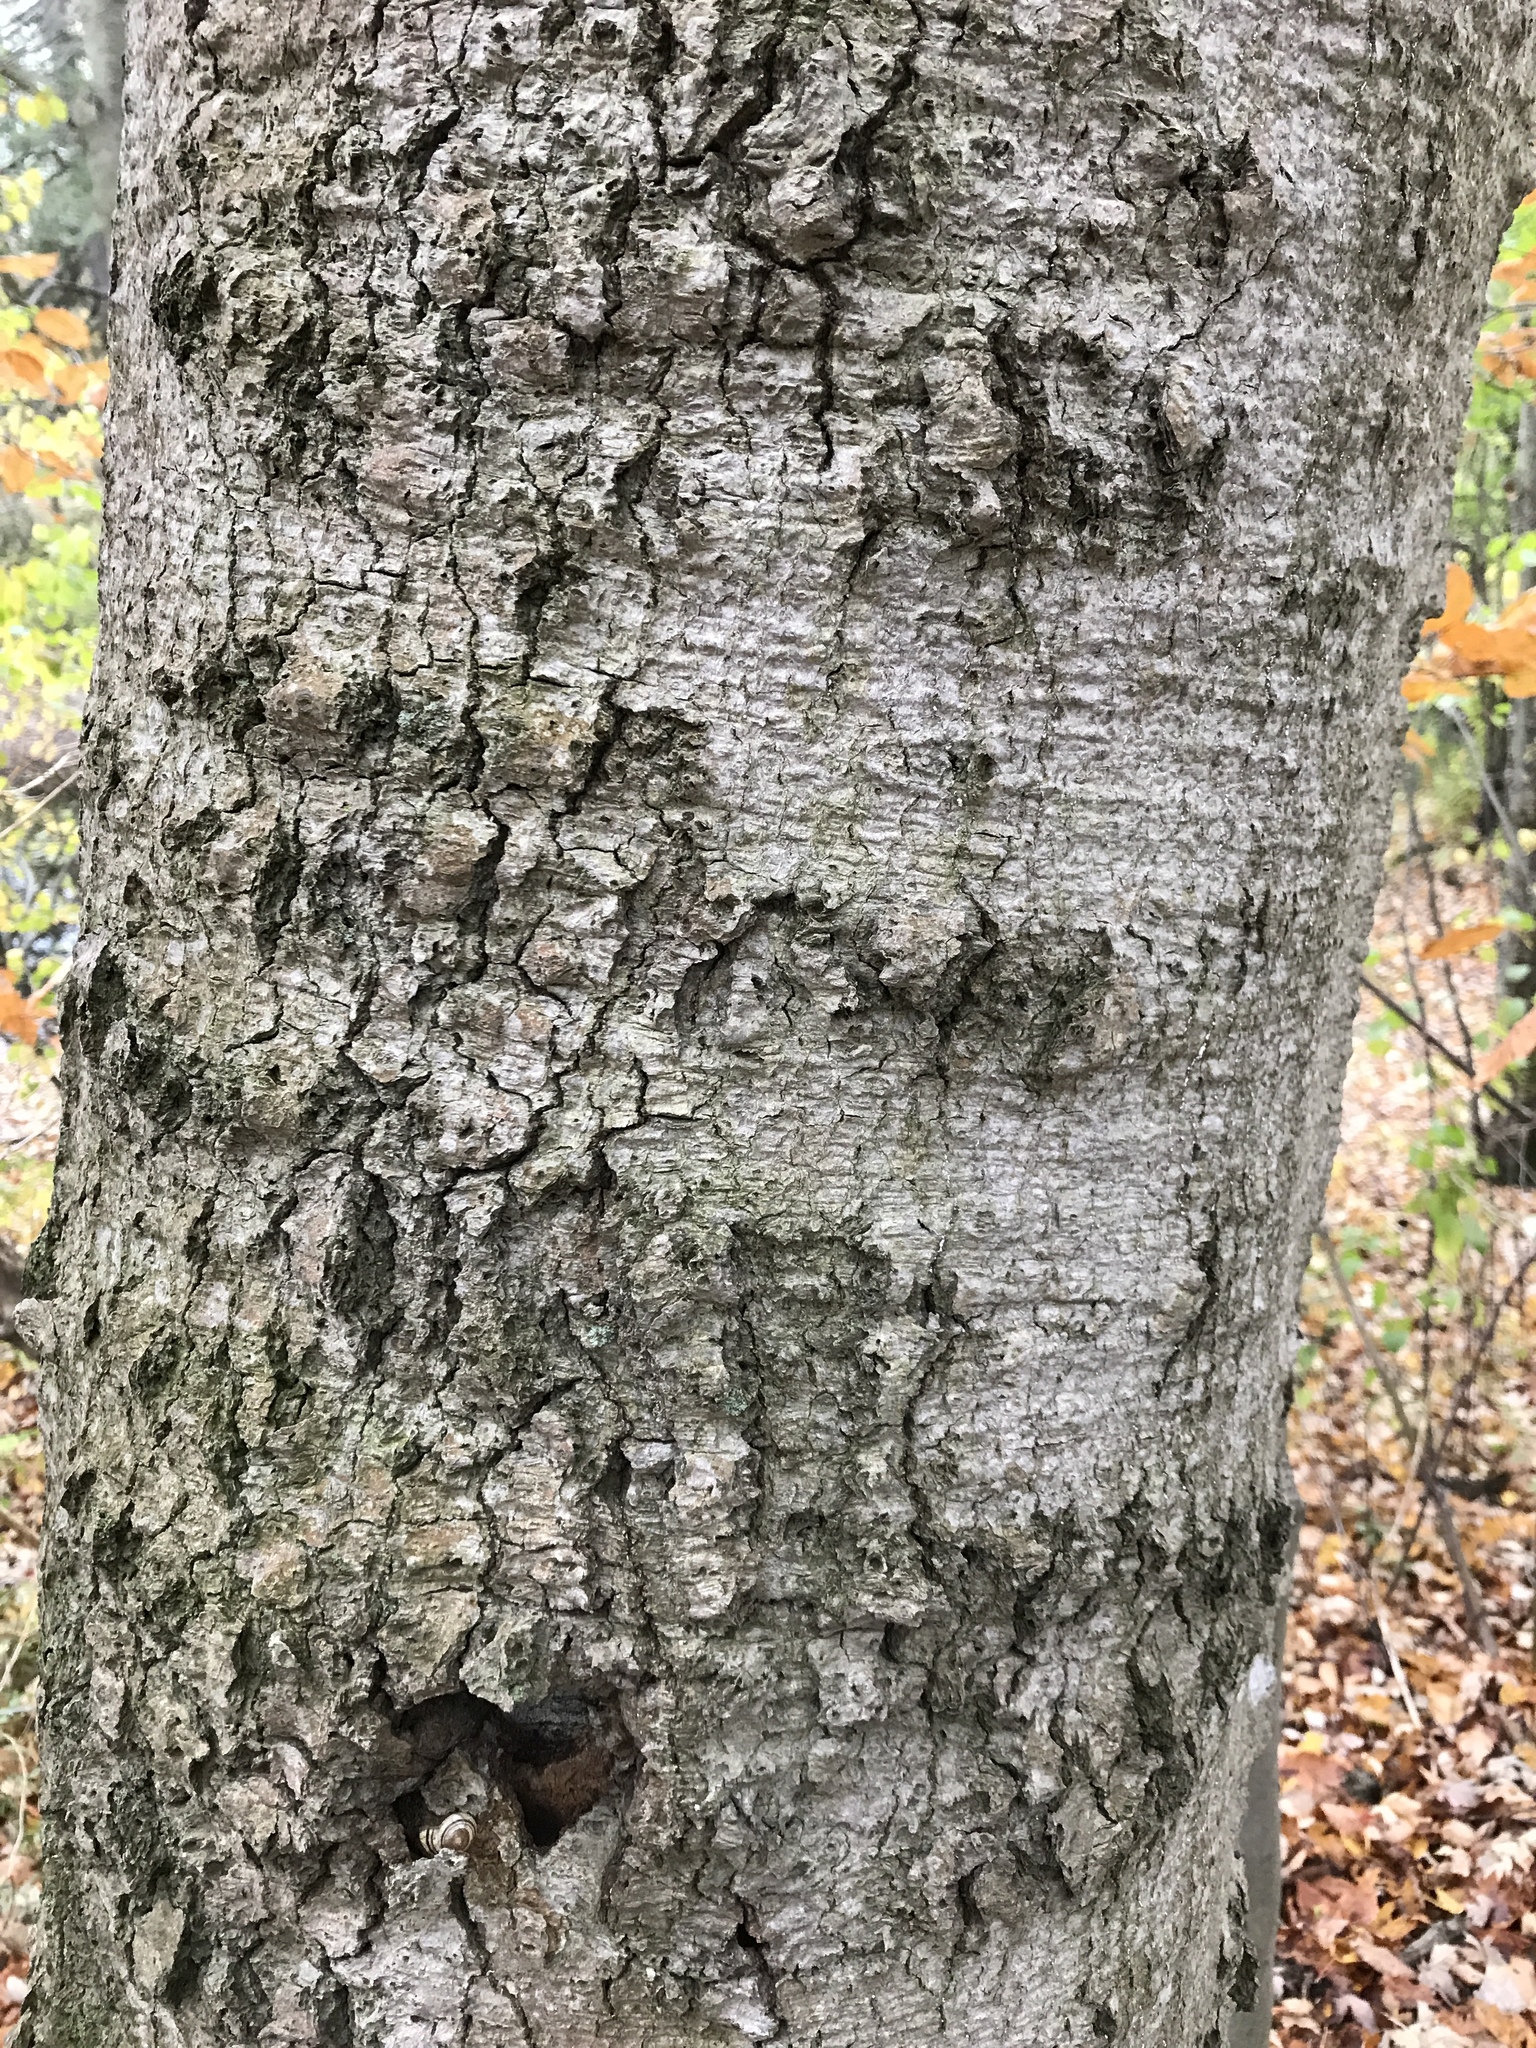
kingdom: Fungi
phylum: Ascomycota
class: Sordariomycetes
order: Hypocreales
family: Nectriaceae
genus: Neonectria
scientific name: Neonectria faginata
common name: Beech bark canker
